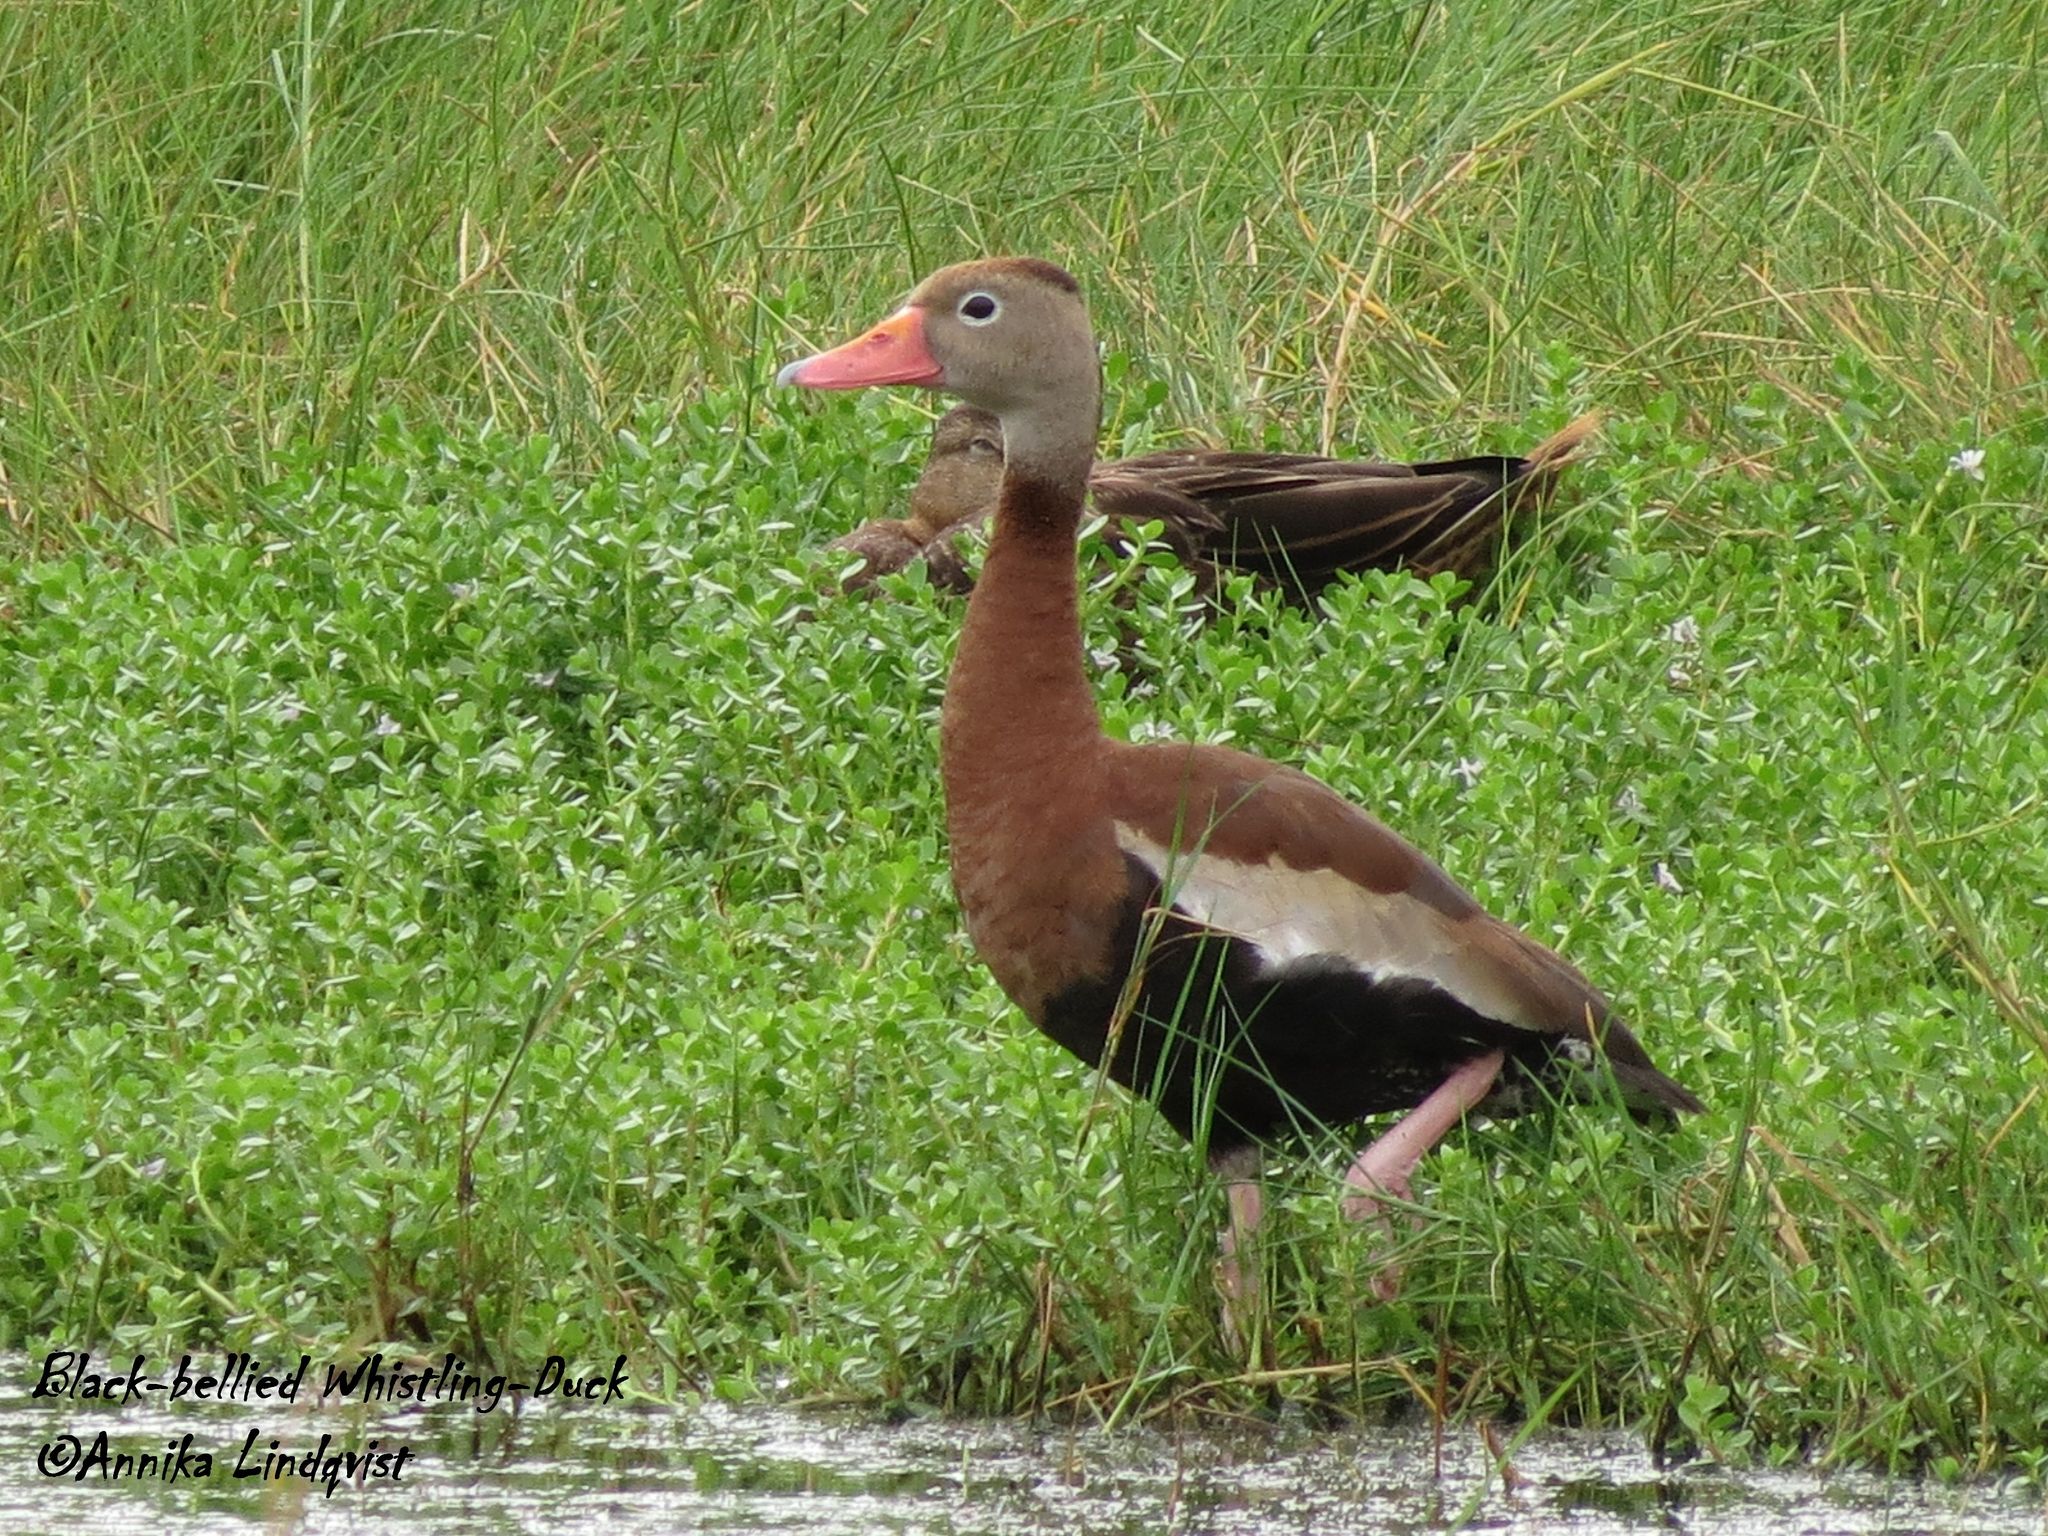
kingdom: Animalia
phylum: Chordata
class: Aves
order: Anseriformes
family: Anatidae
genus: Dendrocygna
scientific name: Dendrocygna autumnalis
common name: Black-bellied whistling duck
